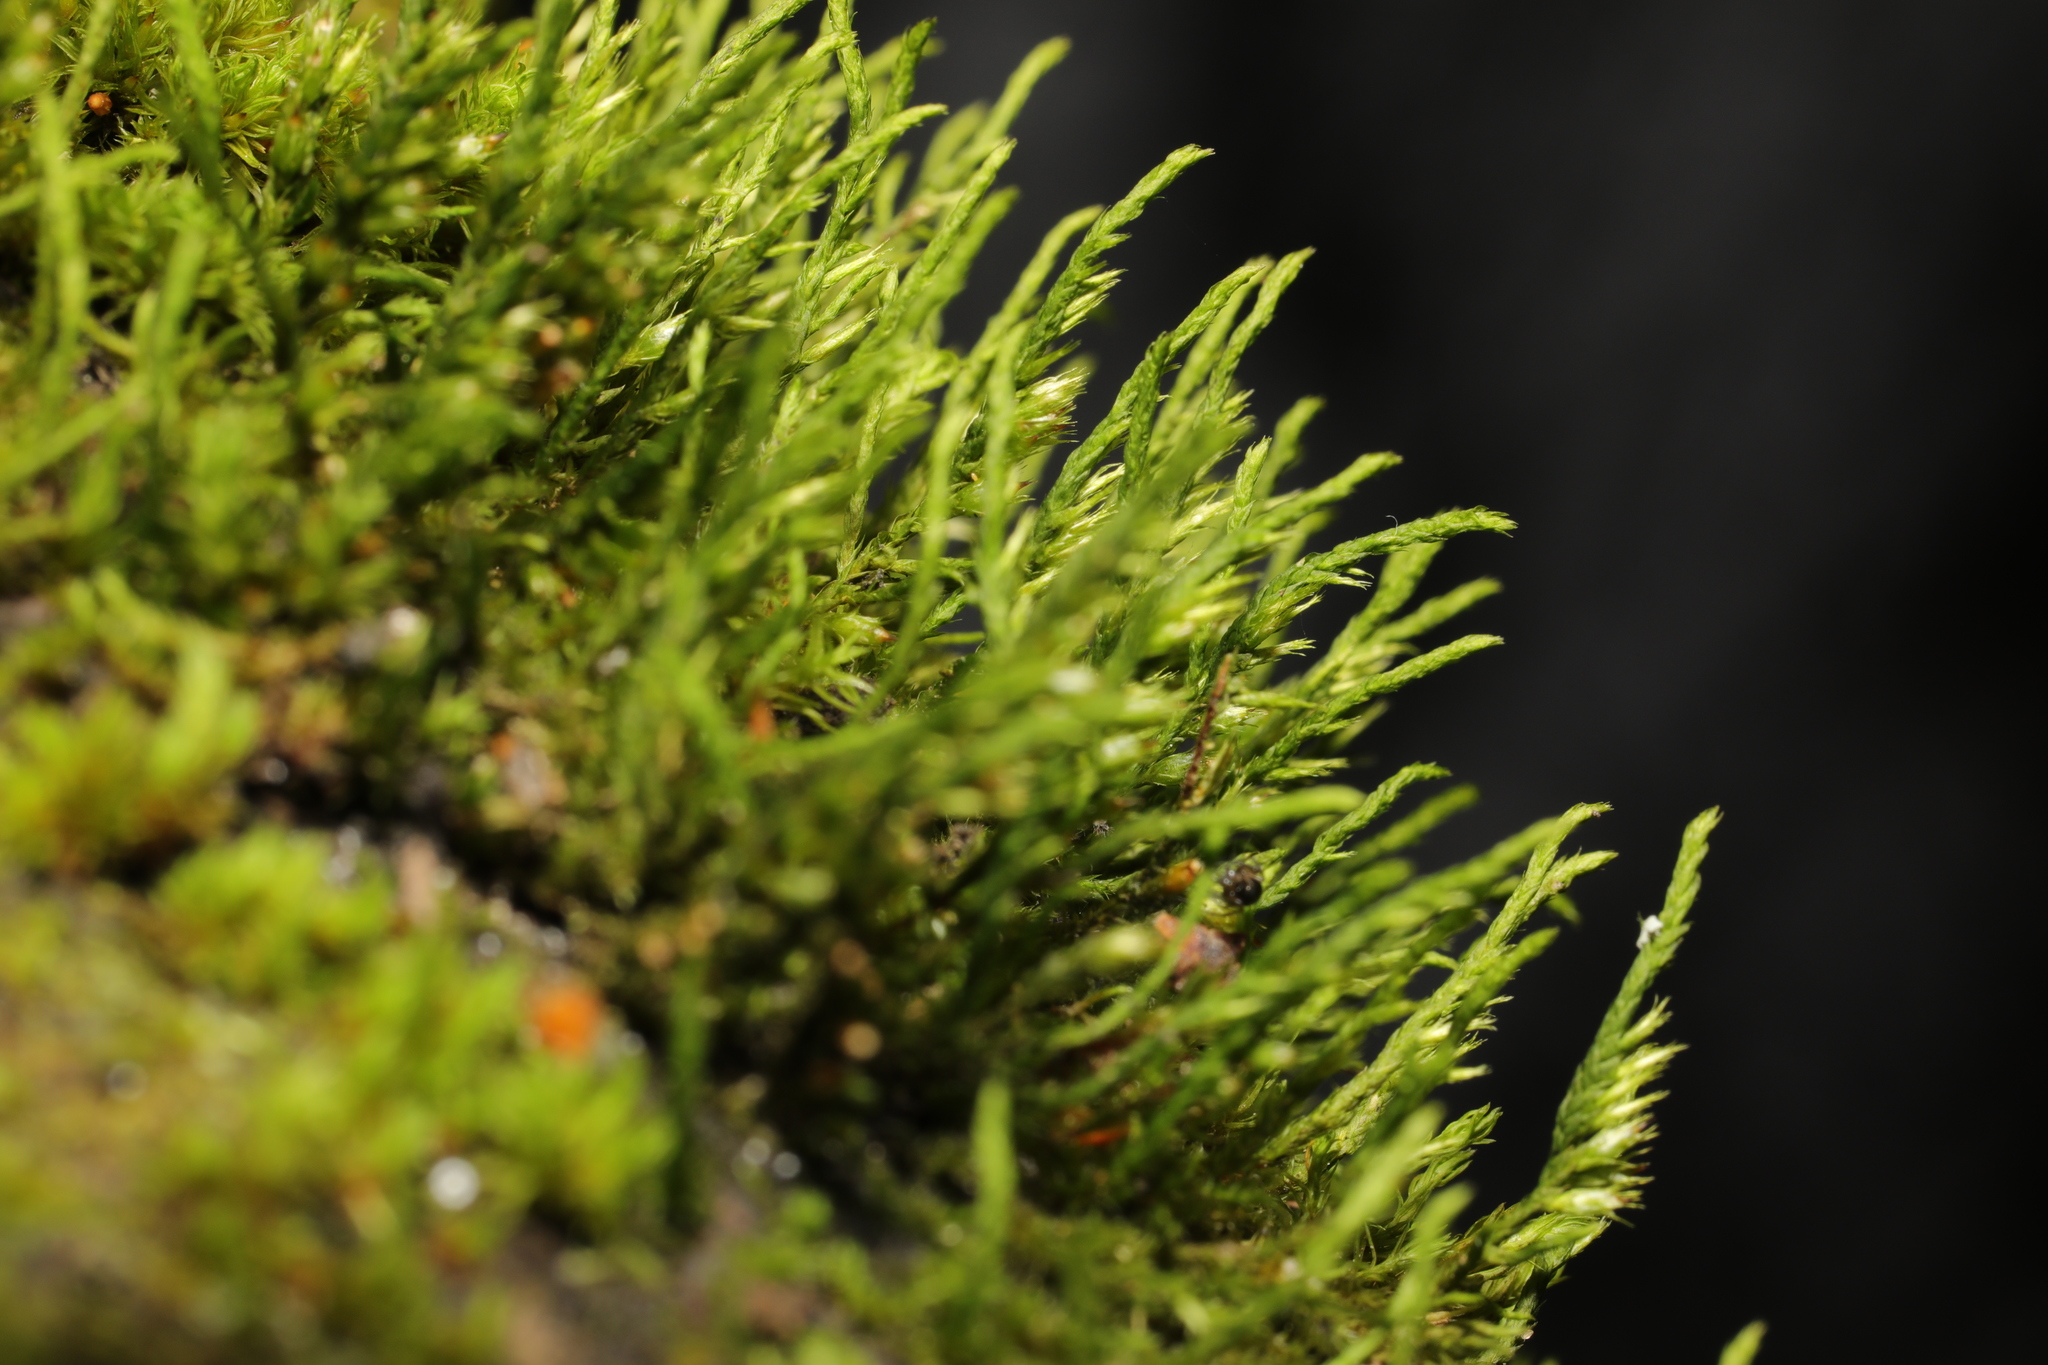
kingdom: Plantae
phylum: Bryophyta
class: Bryopsida
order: Hypnales
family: Cryphaeaceae
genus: Cryphaea
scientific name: Cryphaea heteromalla
